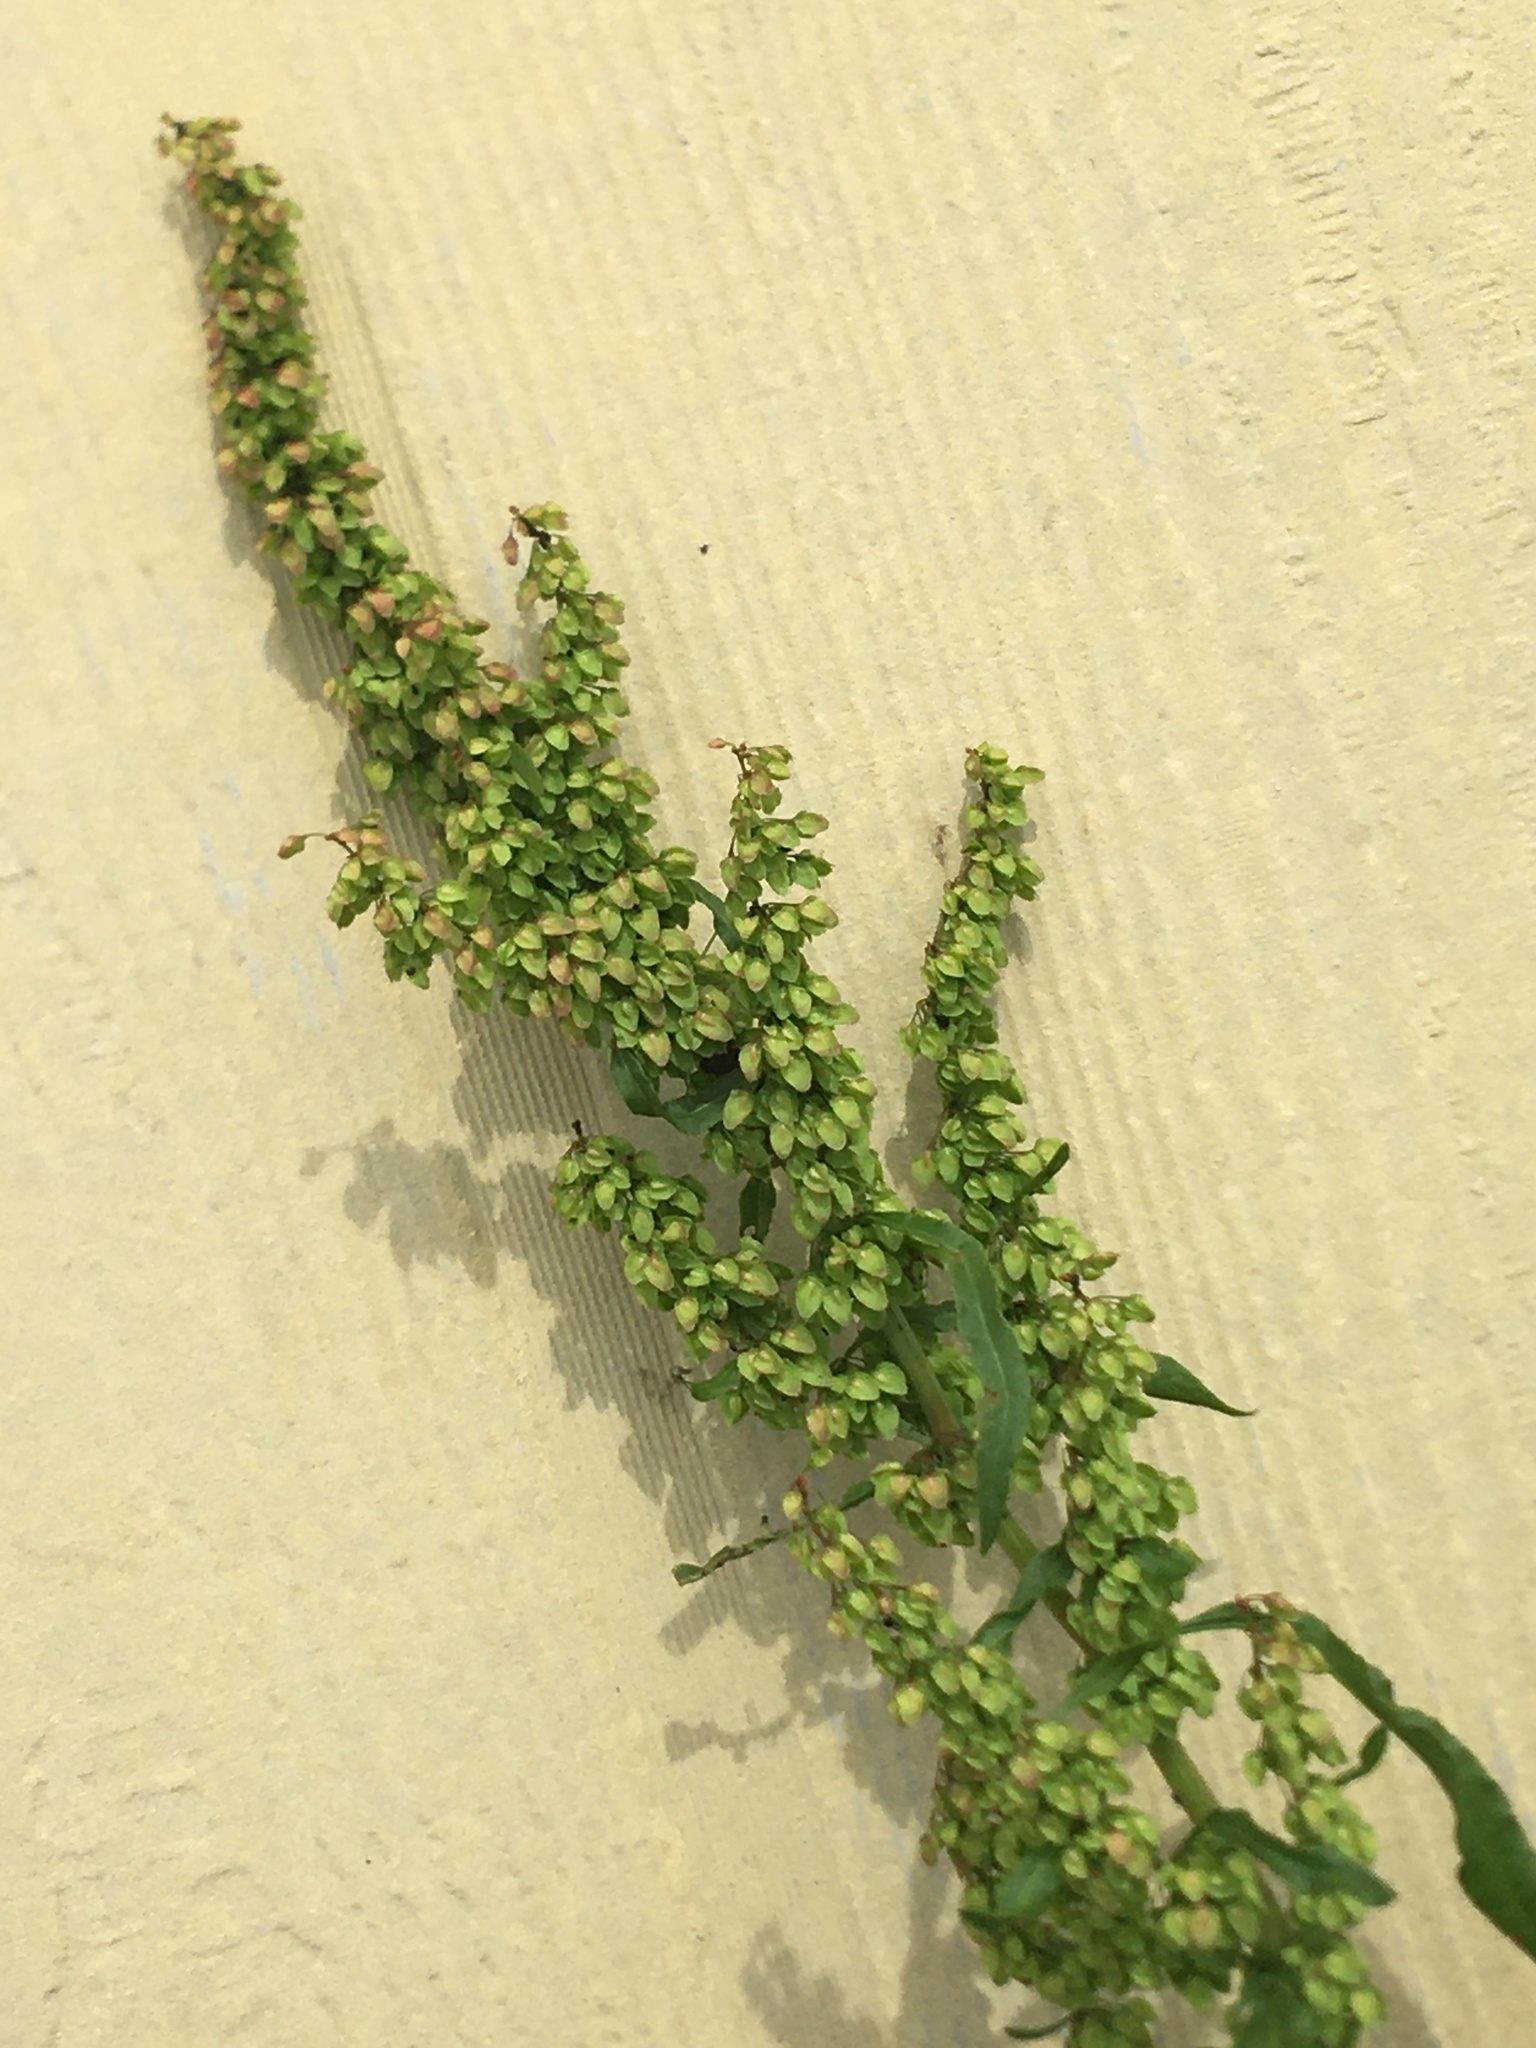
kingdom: Plantae
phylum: Tracheophyta
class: Magnoliopsida
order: Caryophyllales
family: Polygonaceae
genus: Rumex
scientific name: Rumex crispus
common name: Curled dock
